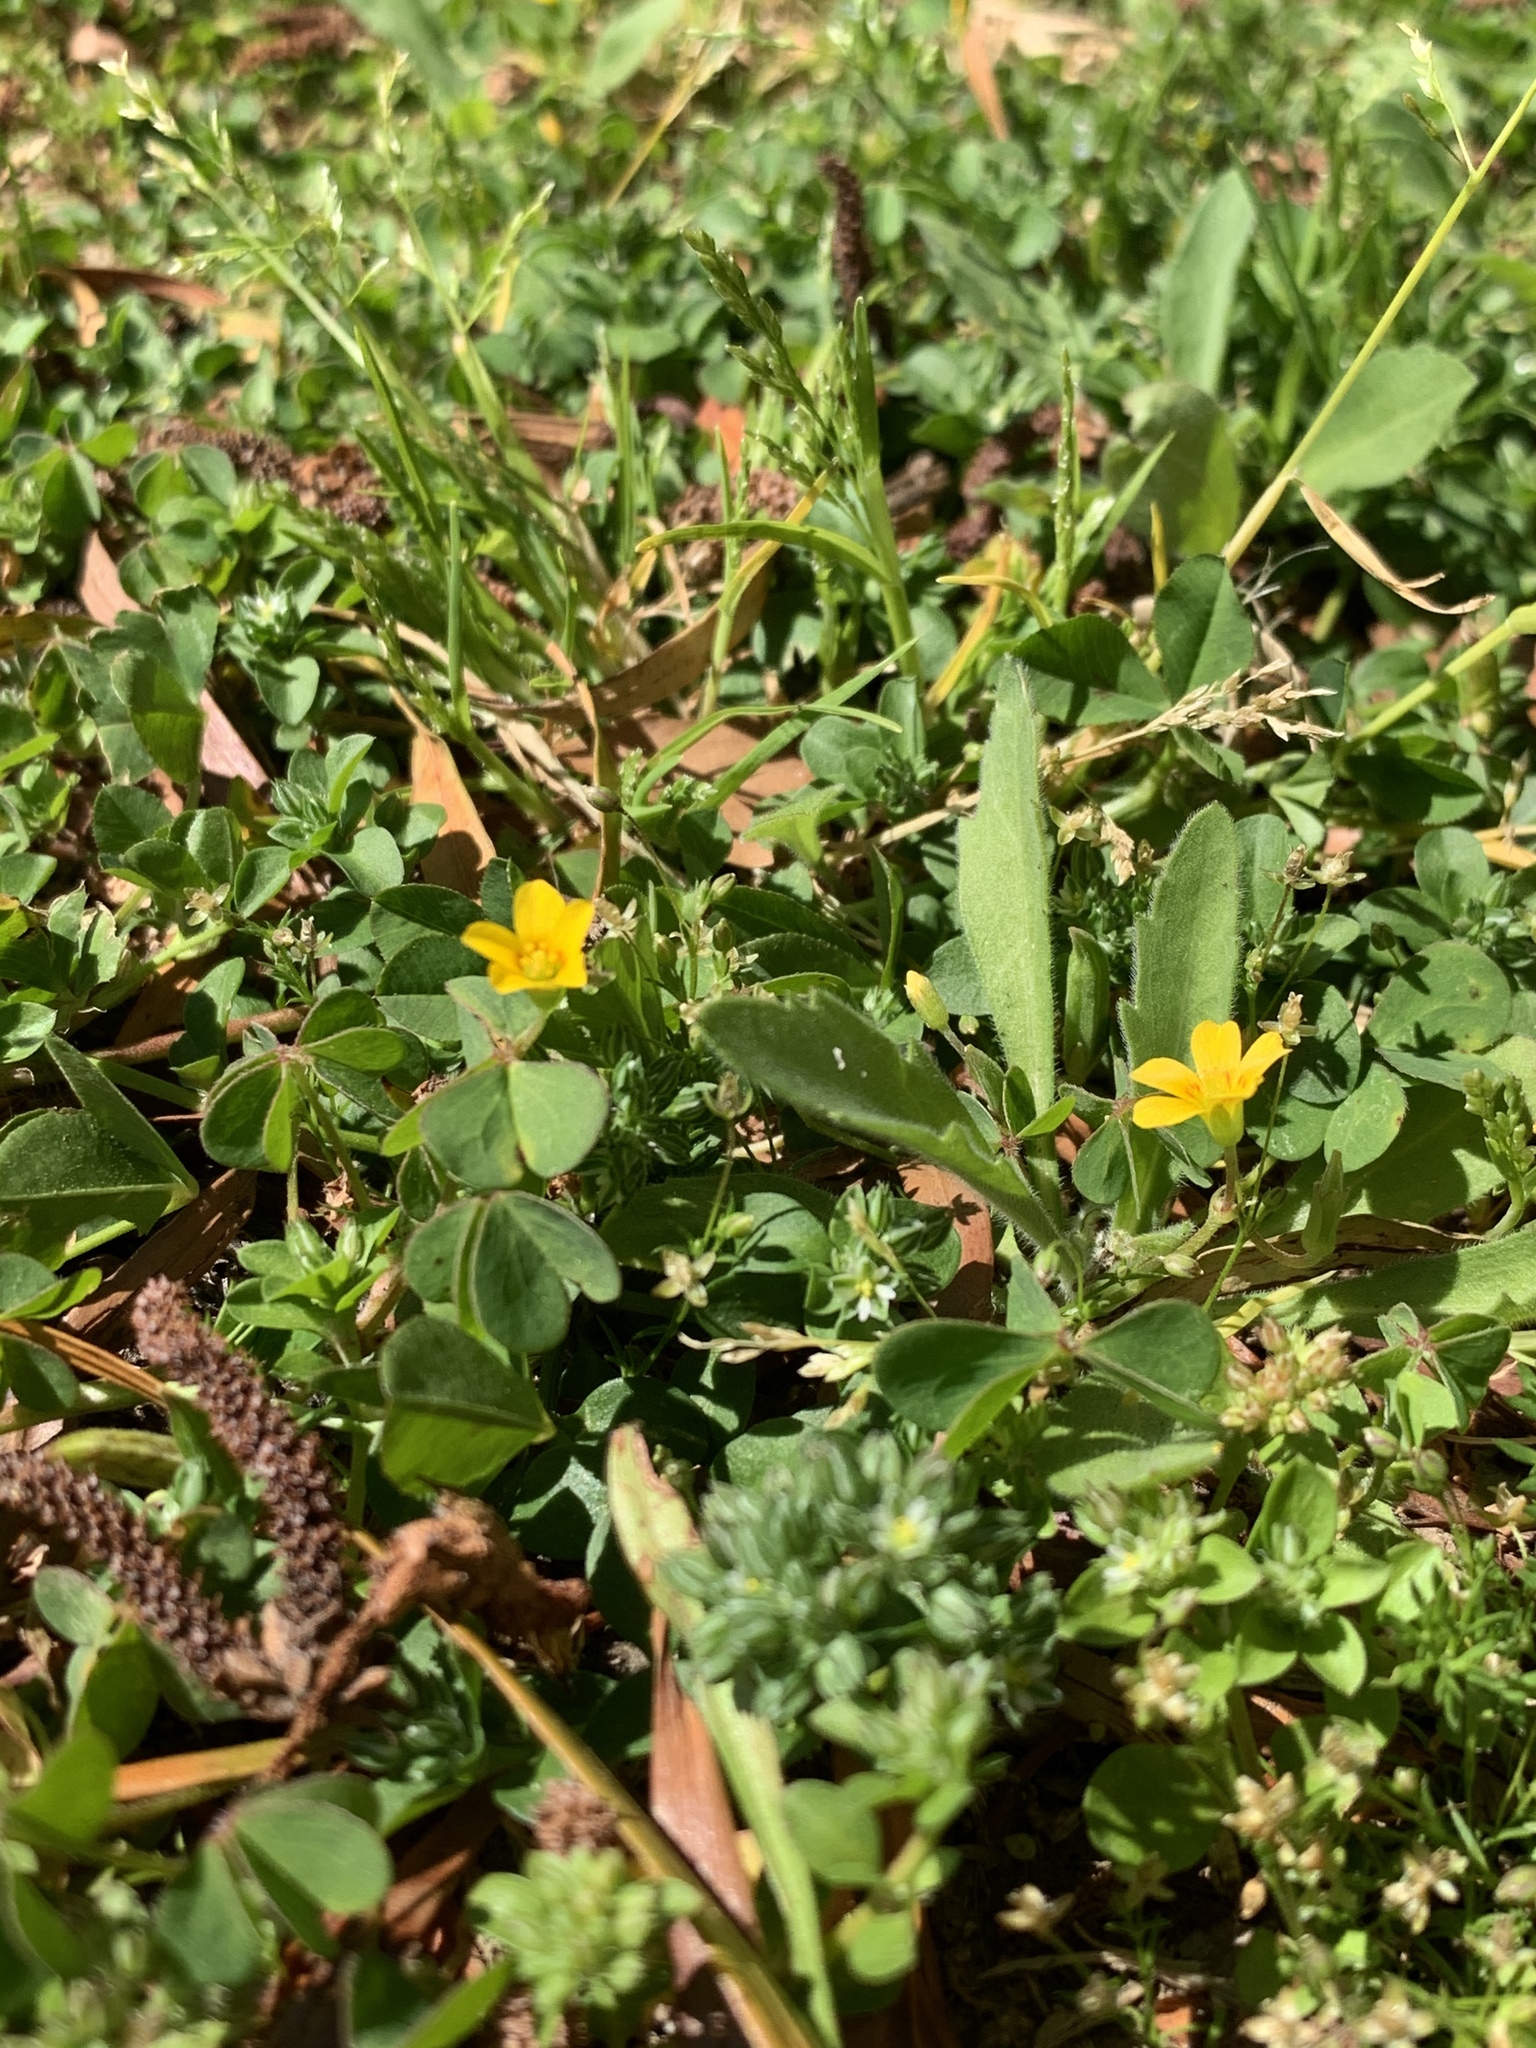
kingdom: Plantae
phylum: Tracheophyta
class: Magnoliopsida
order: Oxalidales
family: Oxalidaceae
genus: Oxalis
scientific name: Oxalis corniculata
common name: Procumbent yellow-sorrel
